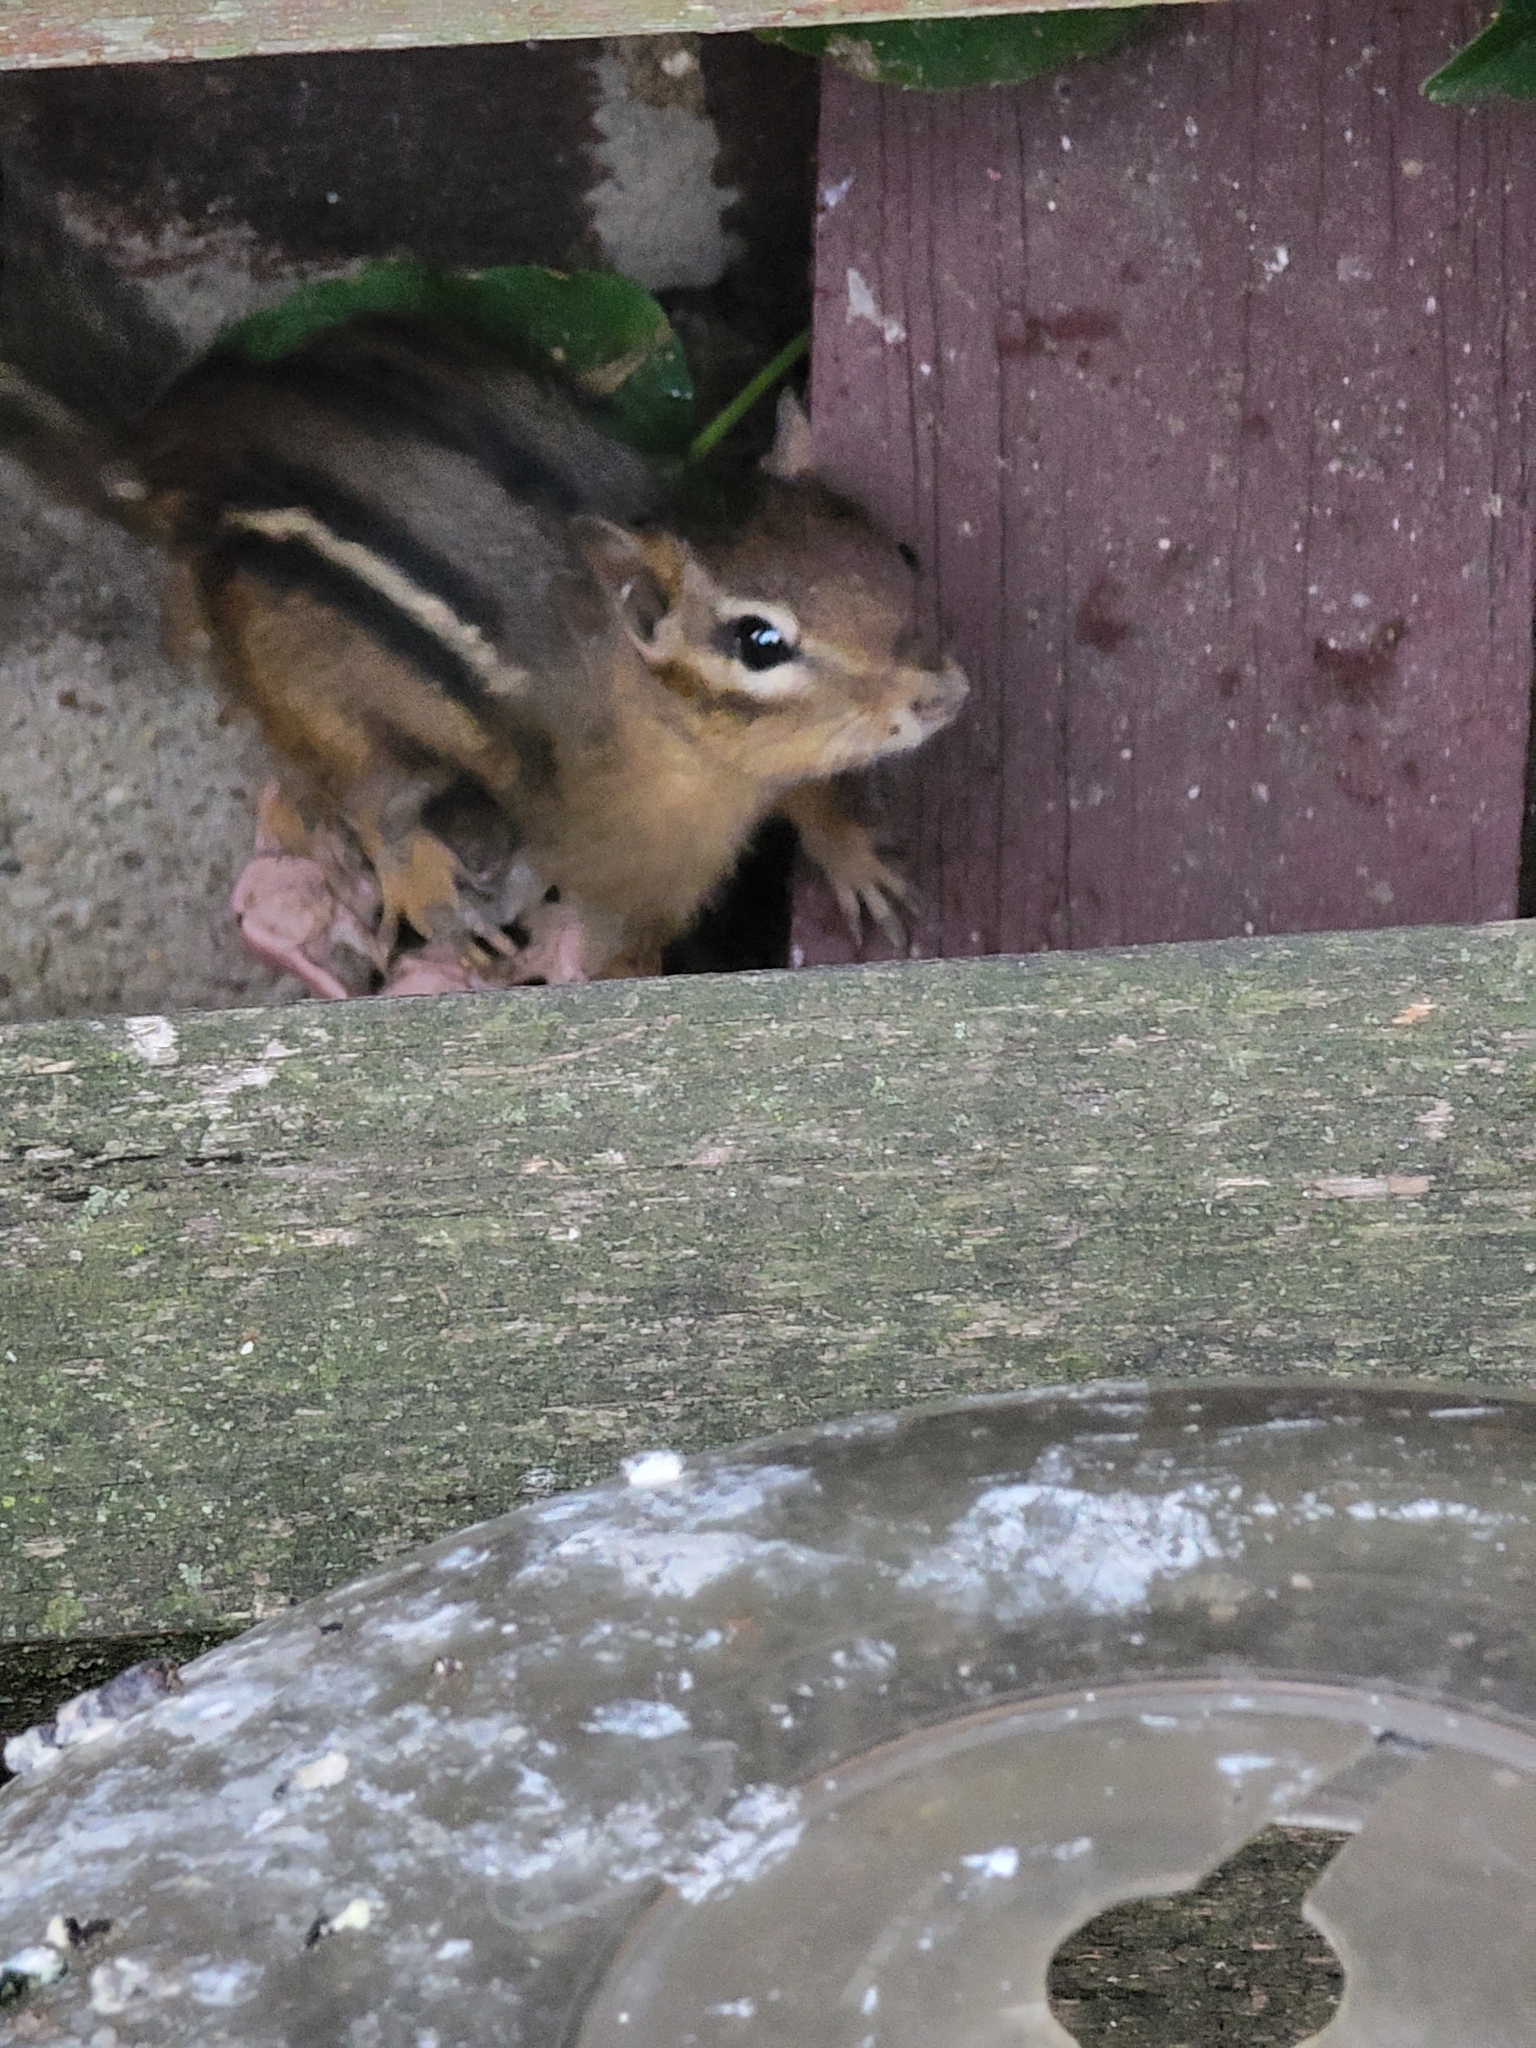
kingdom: Animalia
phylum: Chordata
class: Mammalia
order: Rodentia
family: Sciuridae
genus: Tamias
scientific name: Tamias striatus
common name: Eastern chipmunk
